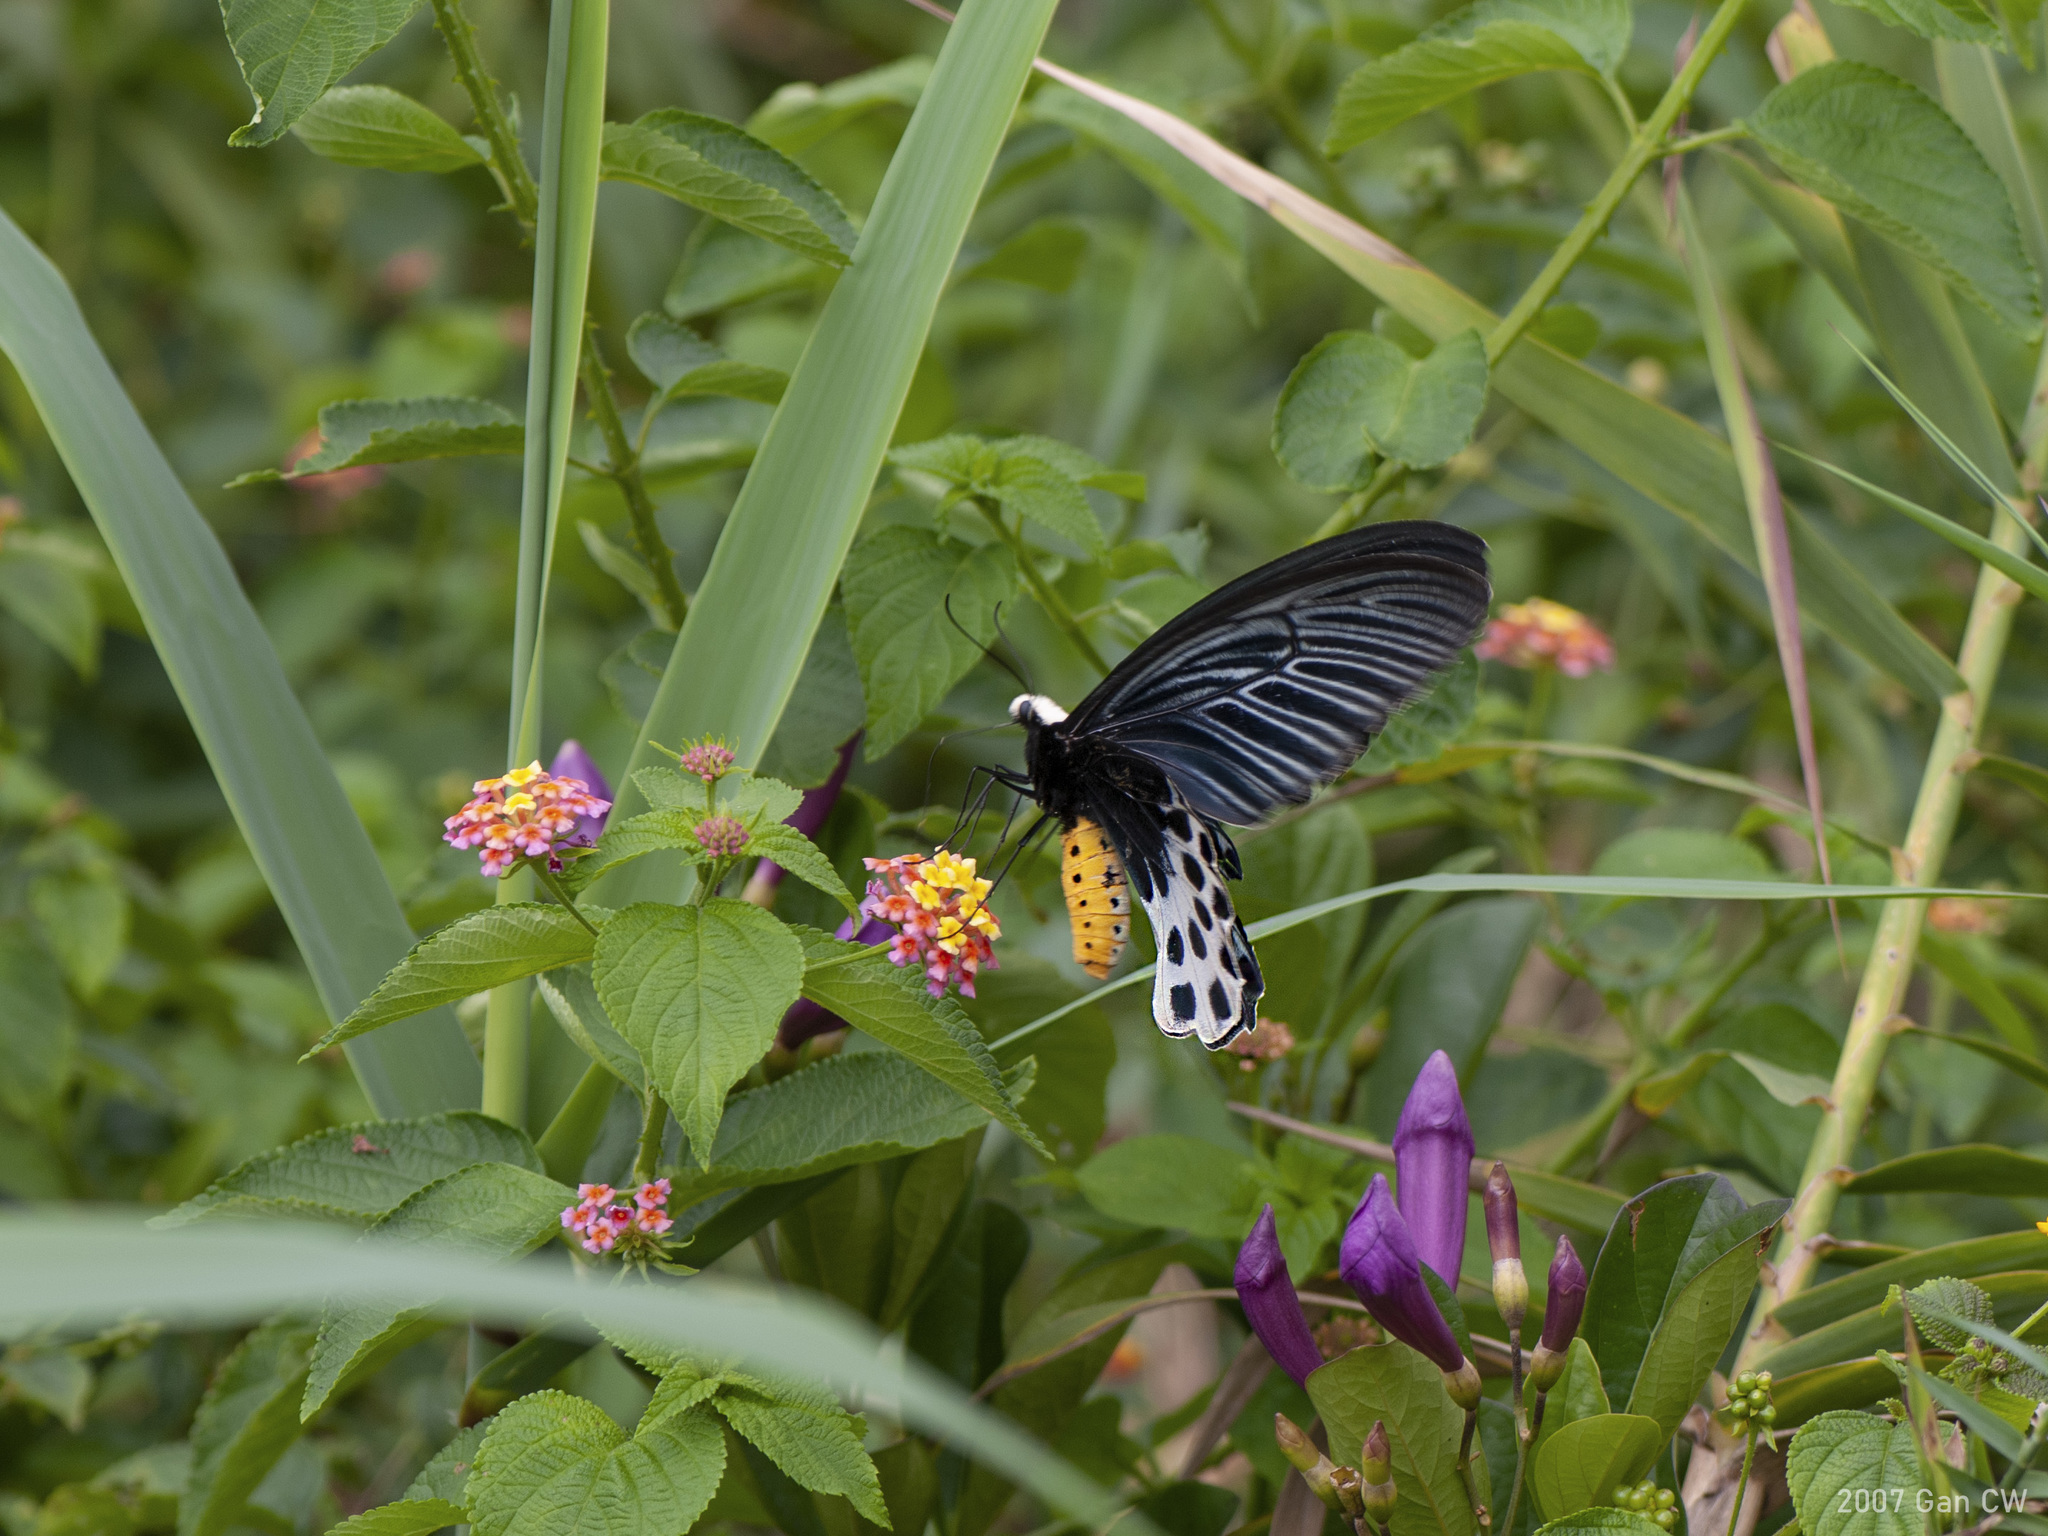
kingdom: Animalia
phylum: Arthropoda
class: Insecta
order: Lepidoptera
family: Papilionidae
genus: Atrophaneura
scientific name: Atrophaneura sycorax
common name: Whitehead batwing
